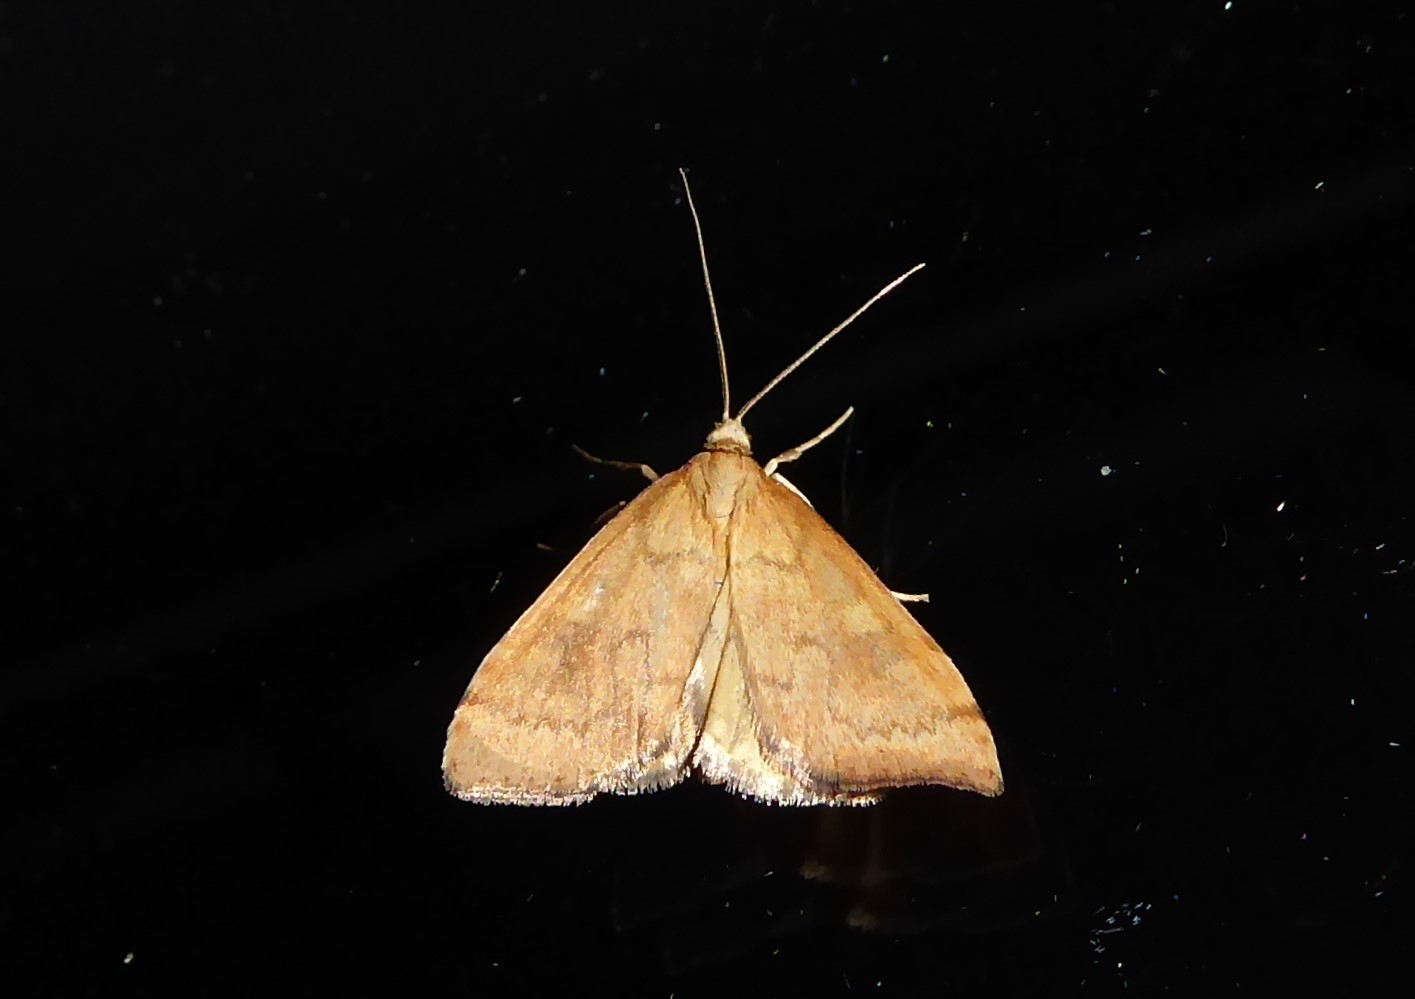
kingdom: Animalia
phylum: Arthropoda
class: Insecta
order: Lepidoptera
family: Crambidae
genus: Udea
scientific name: Udea Mnesictena flavidalis
